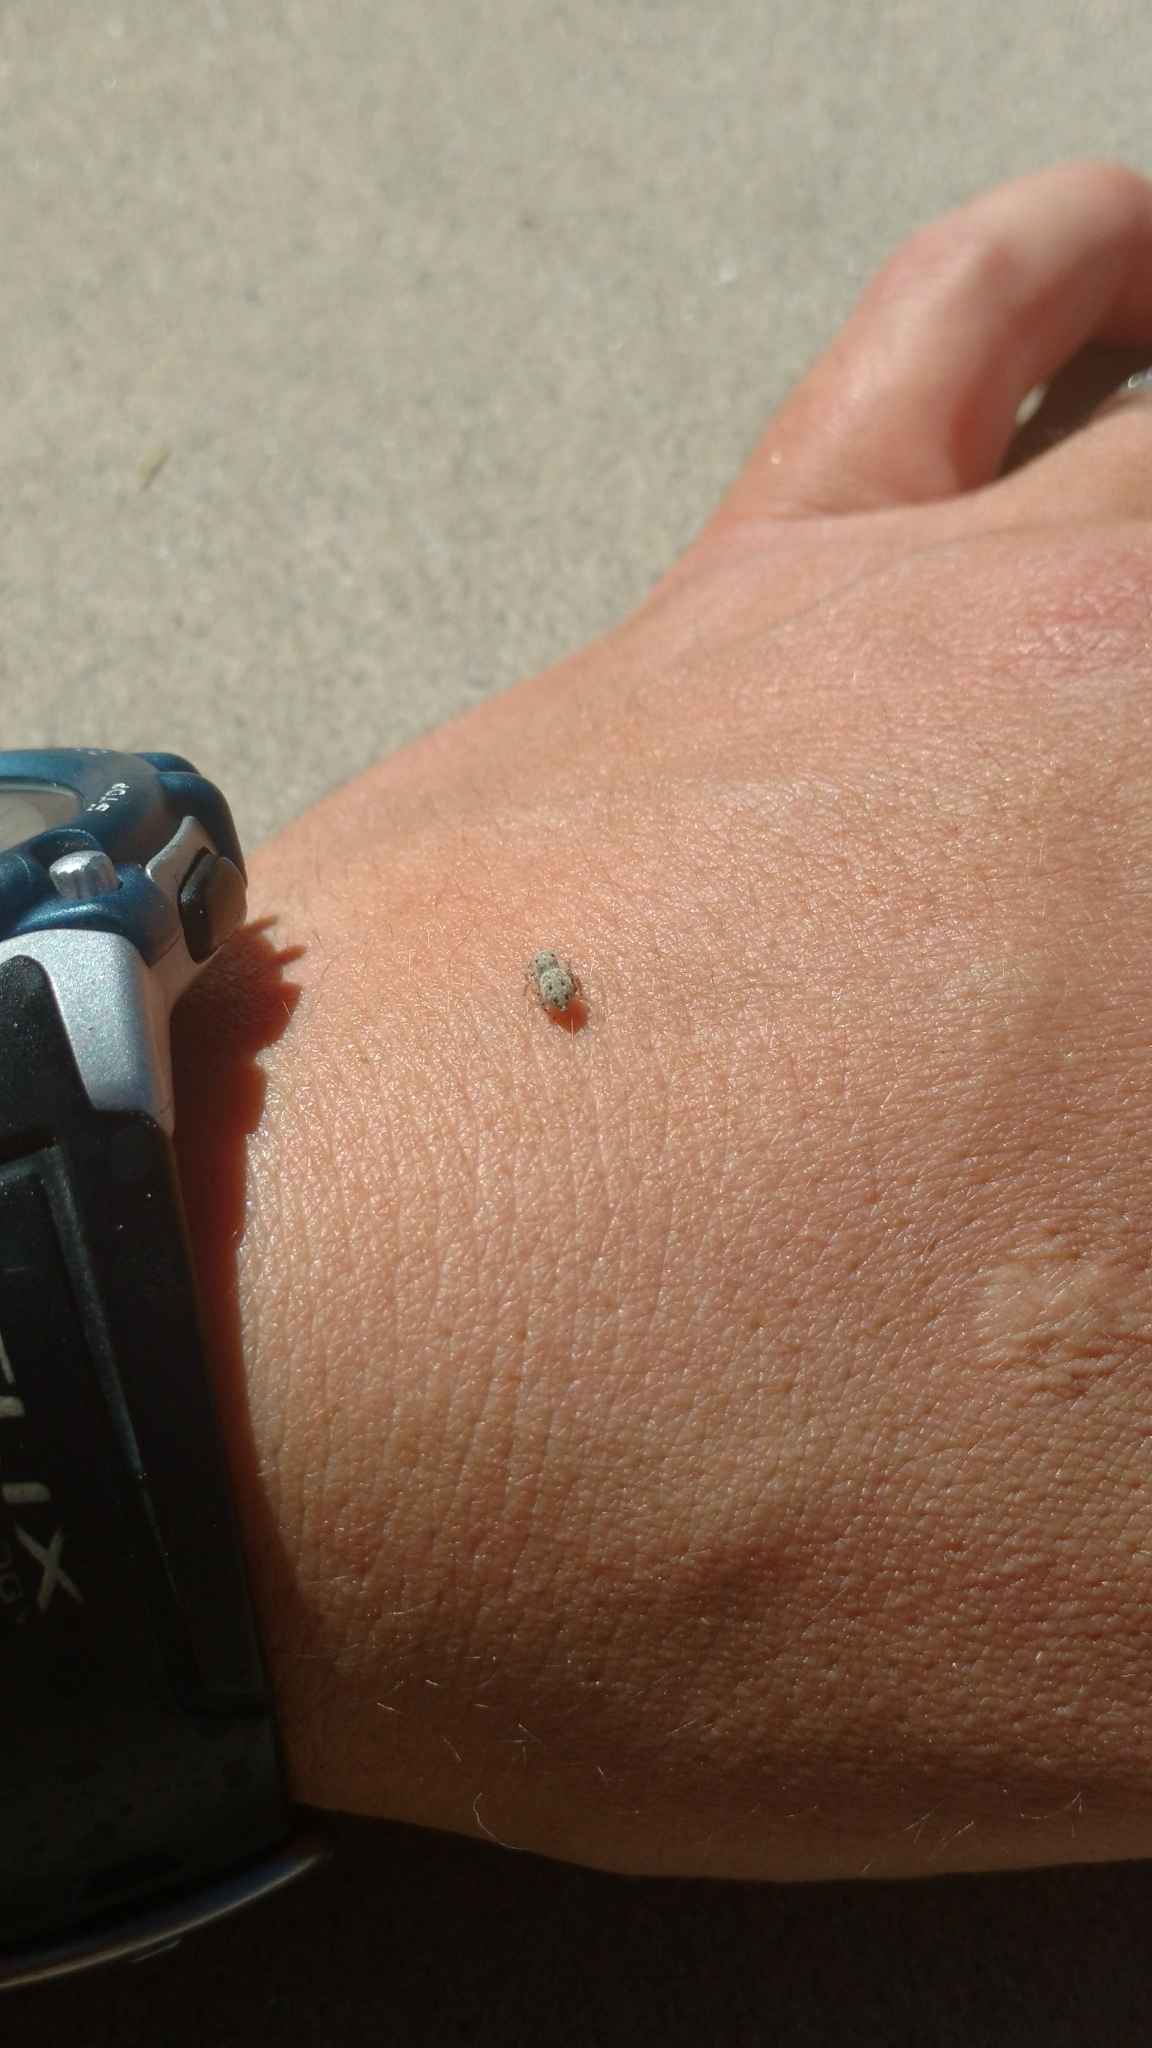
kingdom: Animalia
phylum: Arthropoda
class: Arachnida
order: Araneae
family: Salticidae
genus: Attulus
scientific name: Attulus ammophilus
